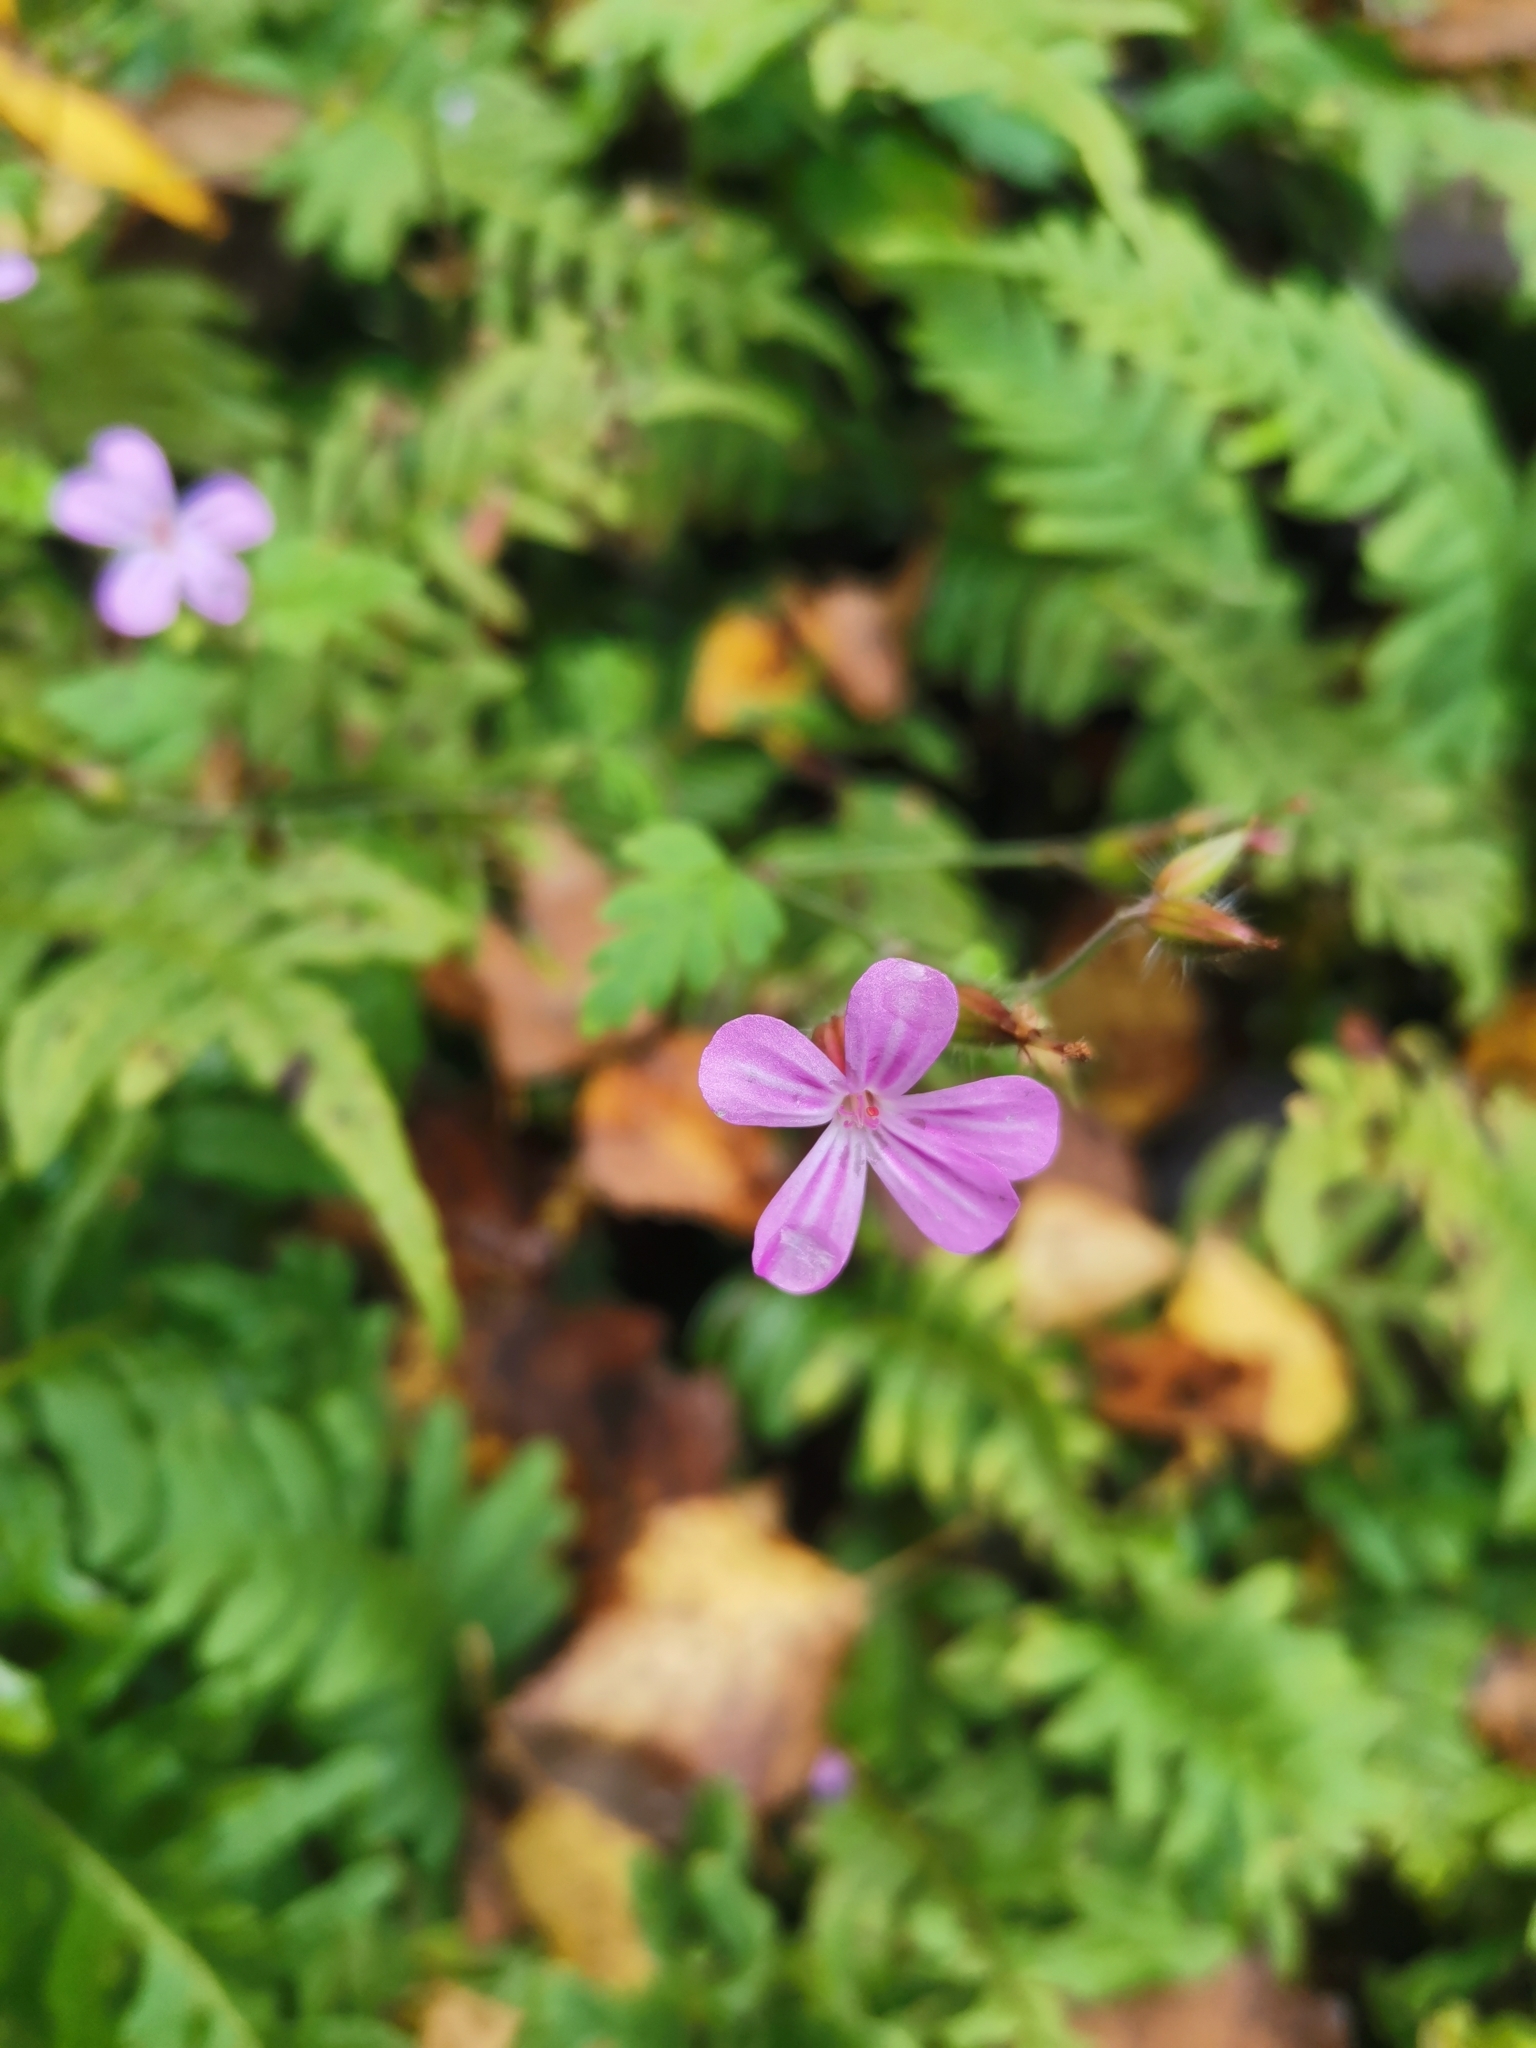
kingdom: Plantae
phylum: Tracheophyta
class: Magnoliopsida
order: Geraniales
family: Geraniaceae
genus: Geranium
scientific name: Geranium robertianum
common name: Herb-robert
